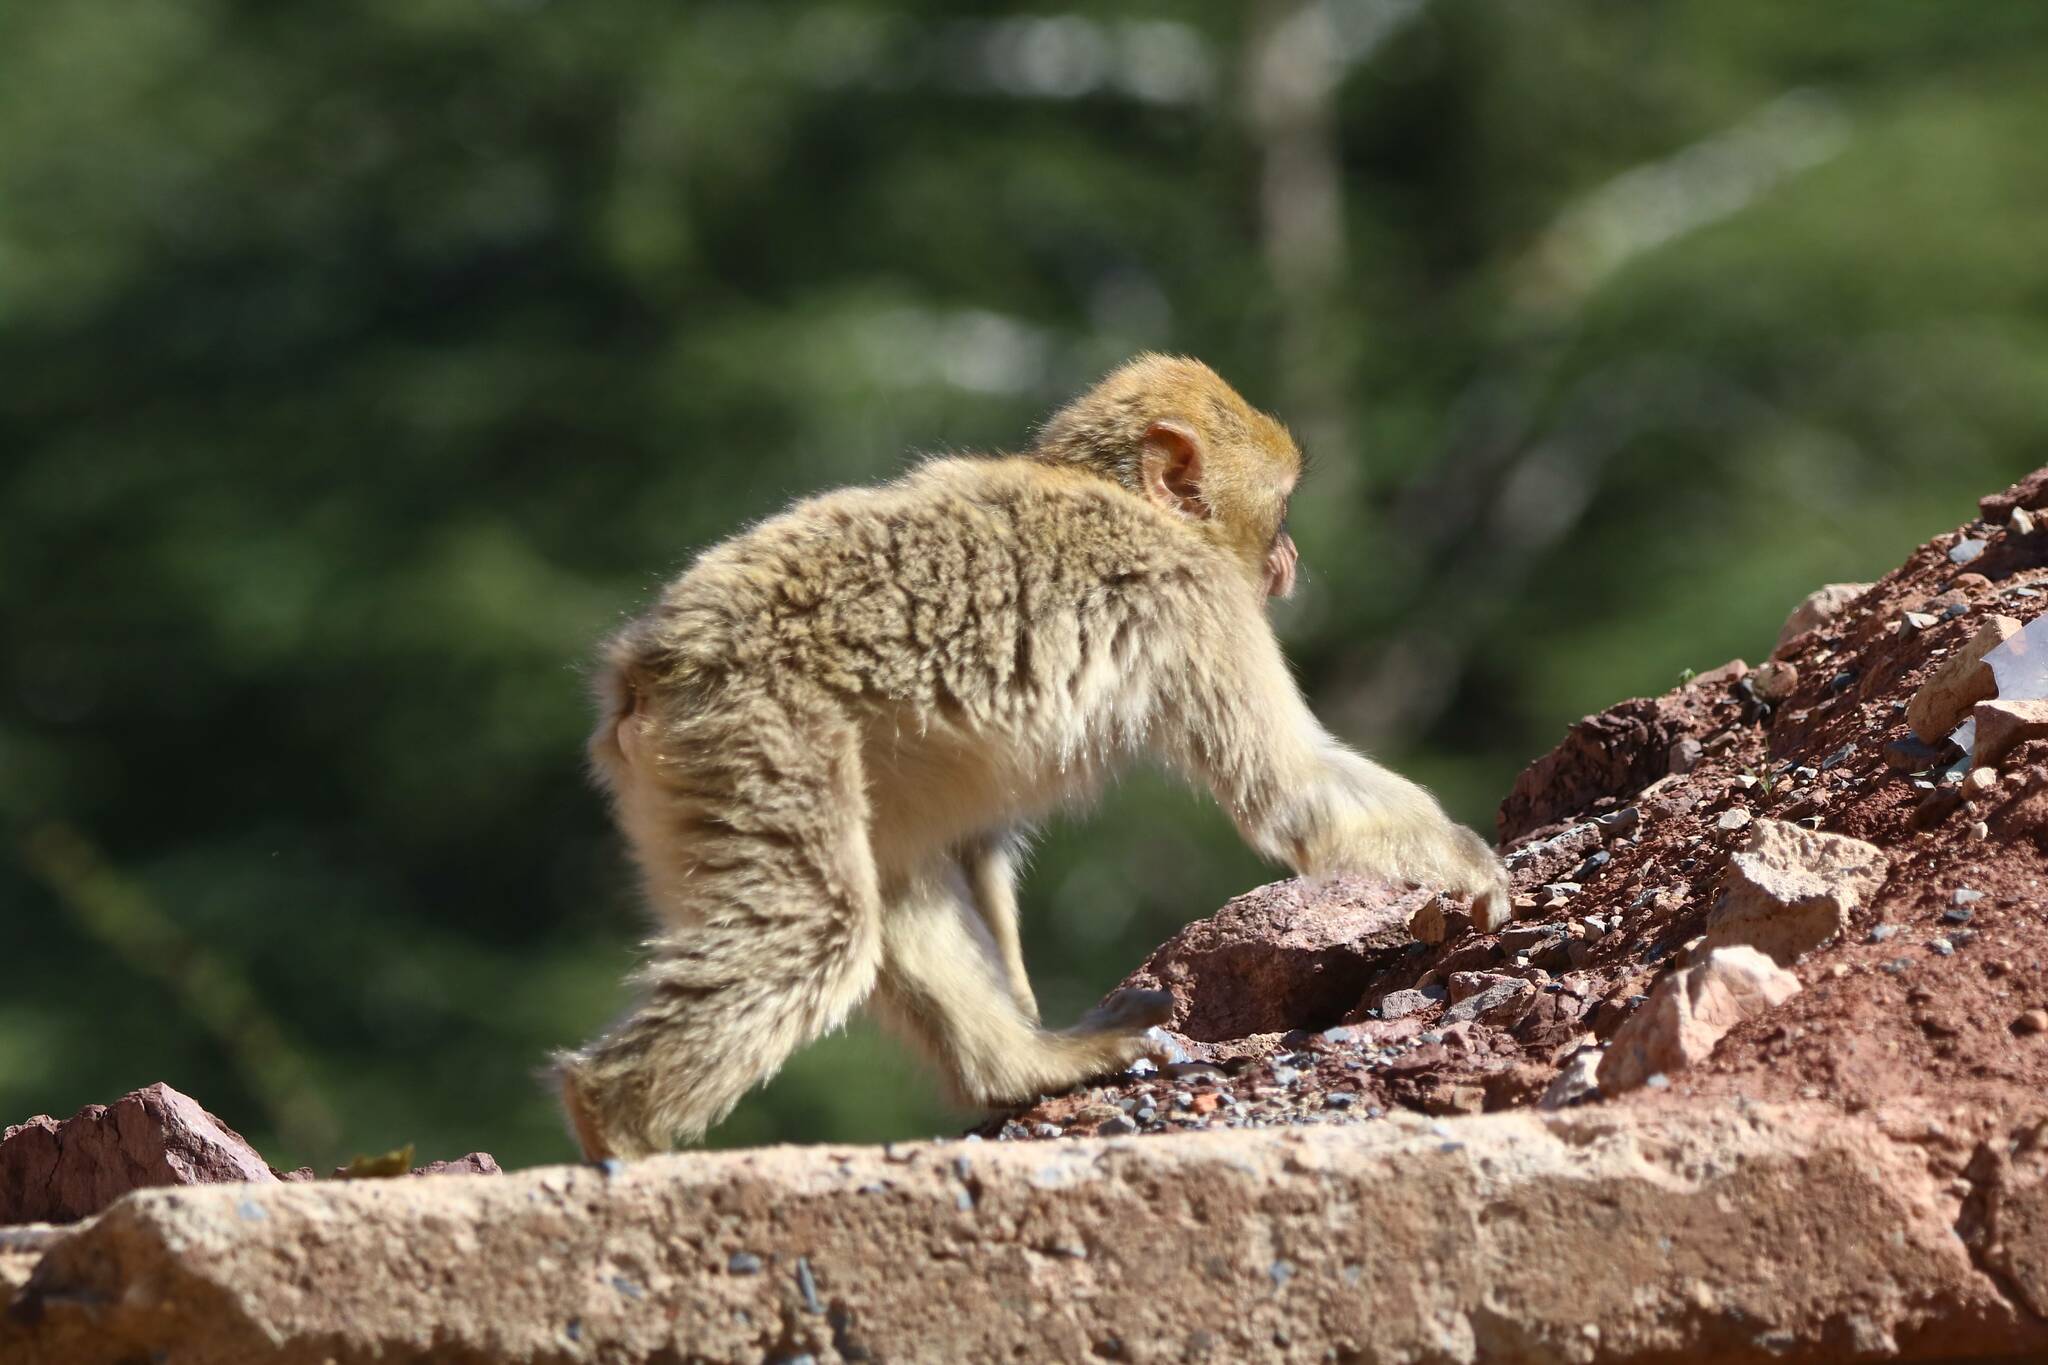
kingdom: Animalia
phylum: Chordata
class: Mammalia
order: Primates
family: Cercopithecidae
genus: Macaca
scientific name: Macaca sylvanus
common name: Barbary macaque
